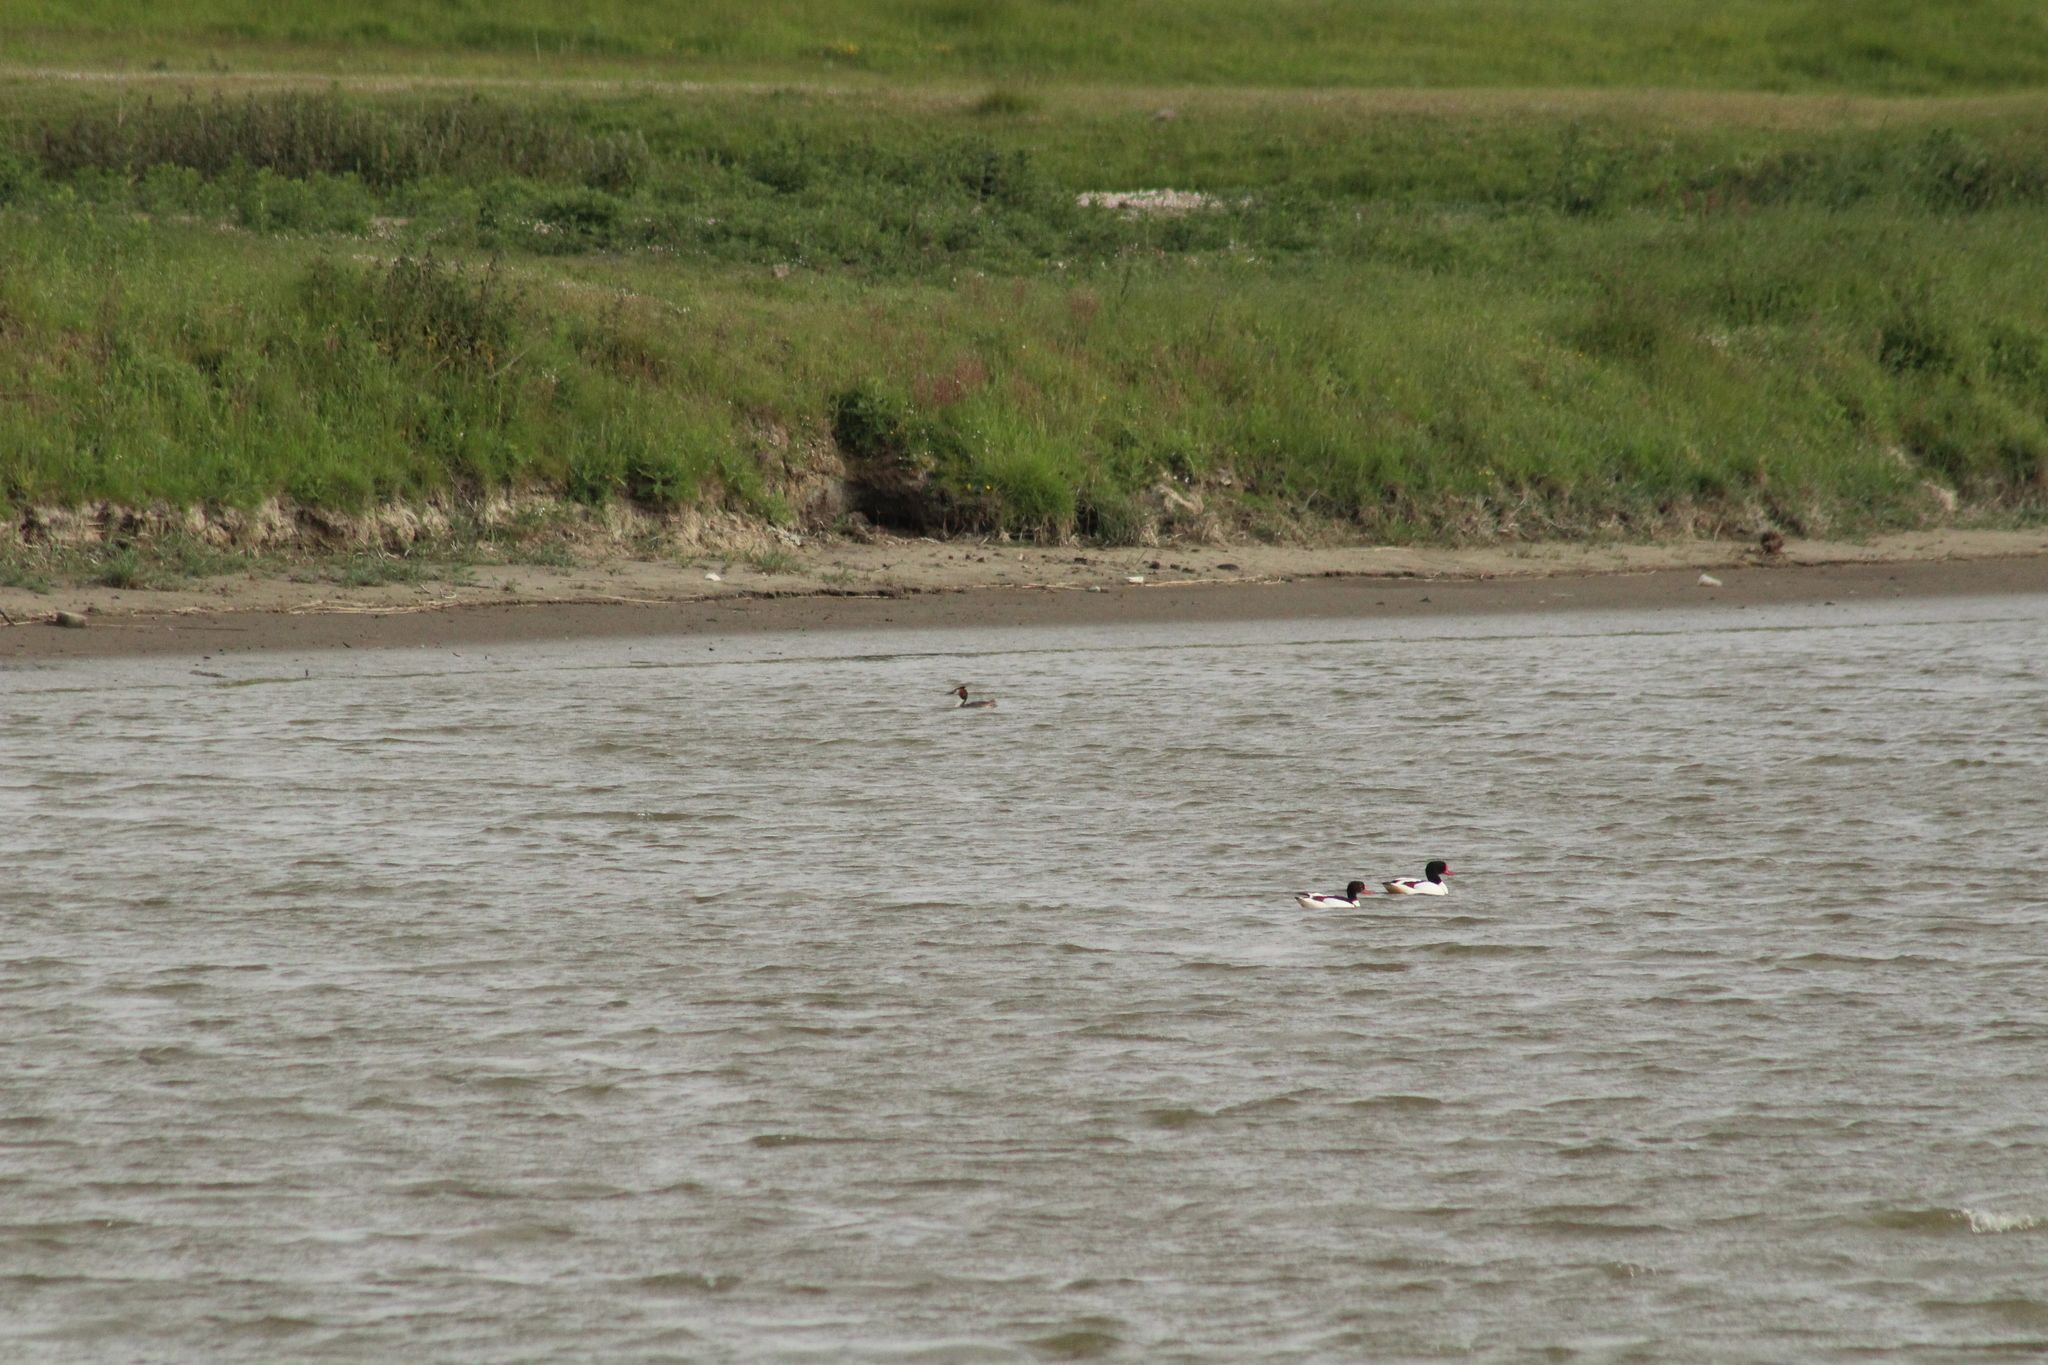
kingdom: Animalia
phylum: Chordata
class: Aves
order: Podicipediformes
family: Podicipedidae
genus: Podiceps
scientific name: Podiceps cristatus
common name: Great crested grebe
